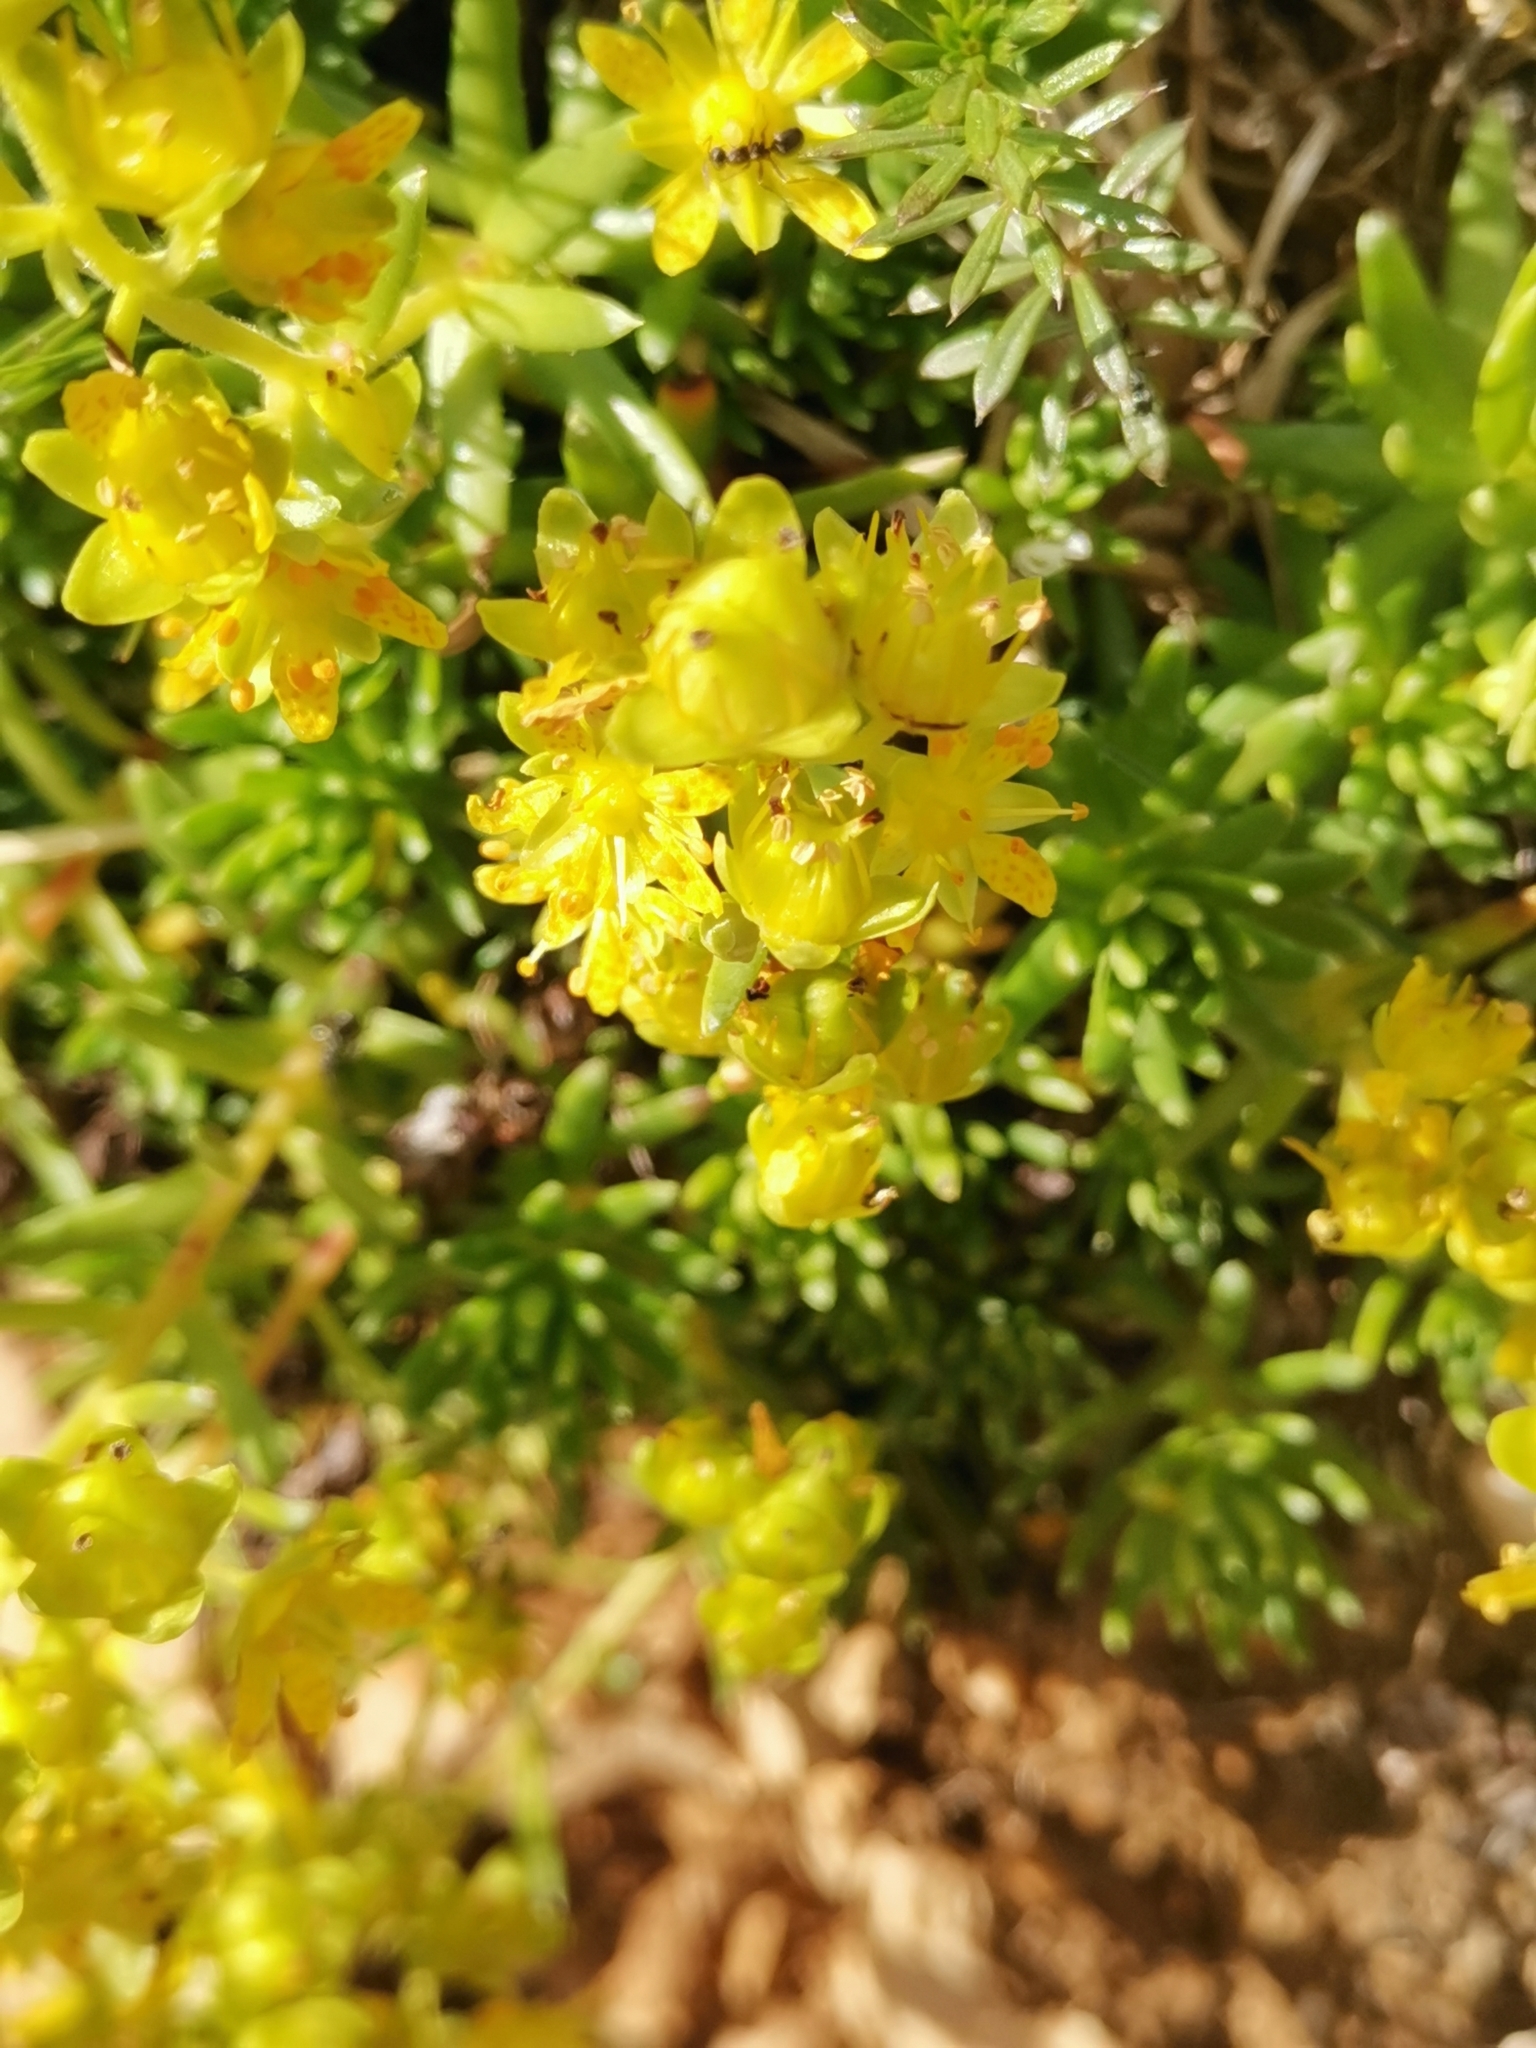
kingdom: Plantae
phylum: Tracheophyta
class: Magnoliopsida
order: Saxifragales
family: Saxifragaceae
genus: Saxifraga
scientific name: Saxifraga aizoides
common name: Yellow mountain saxifrage
